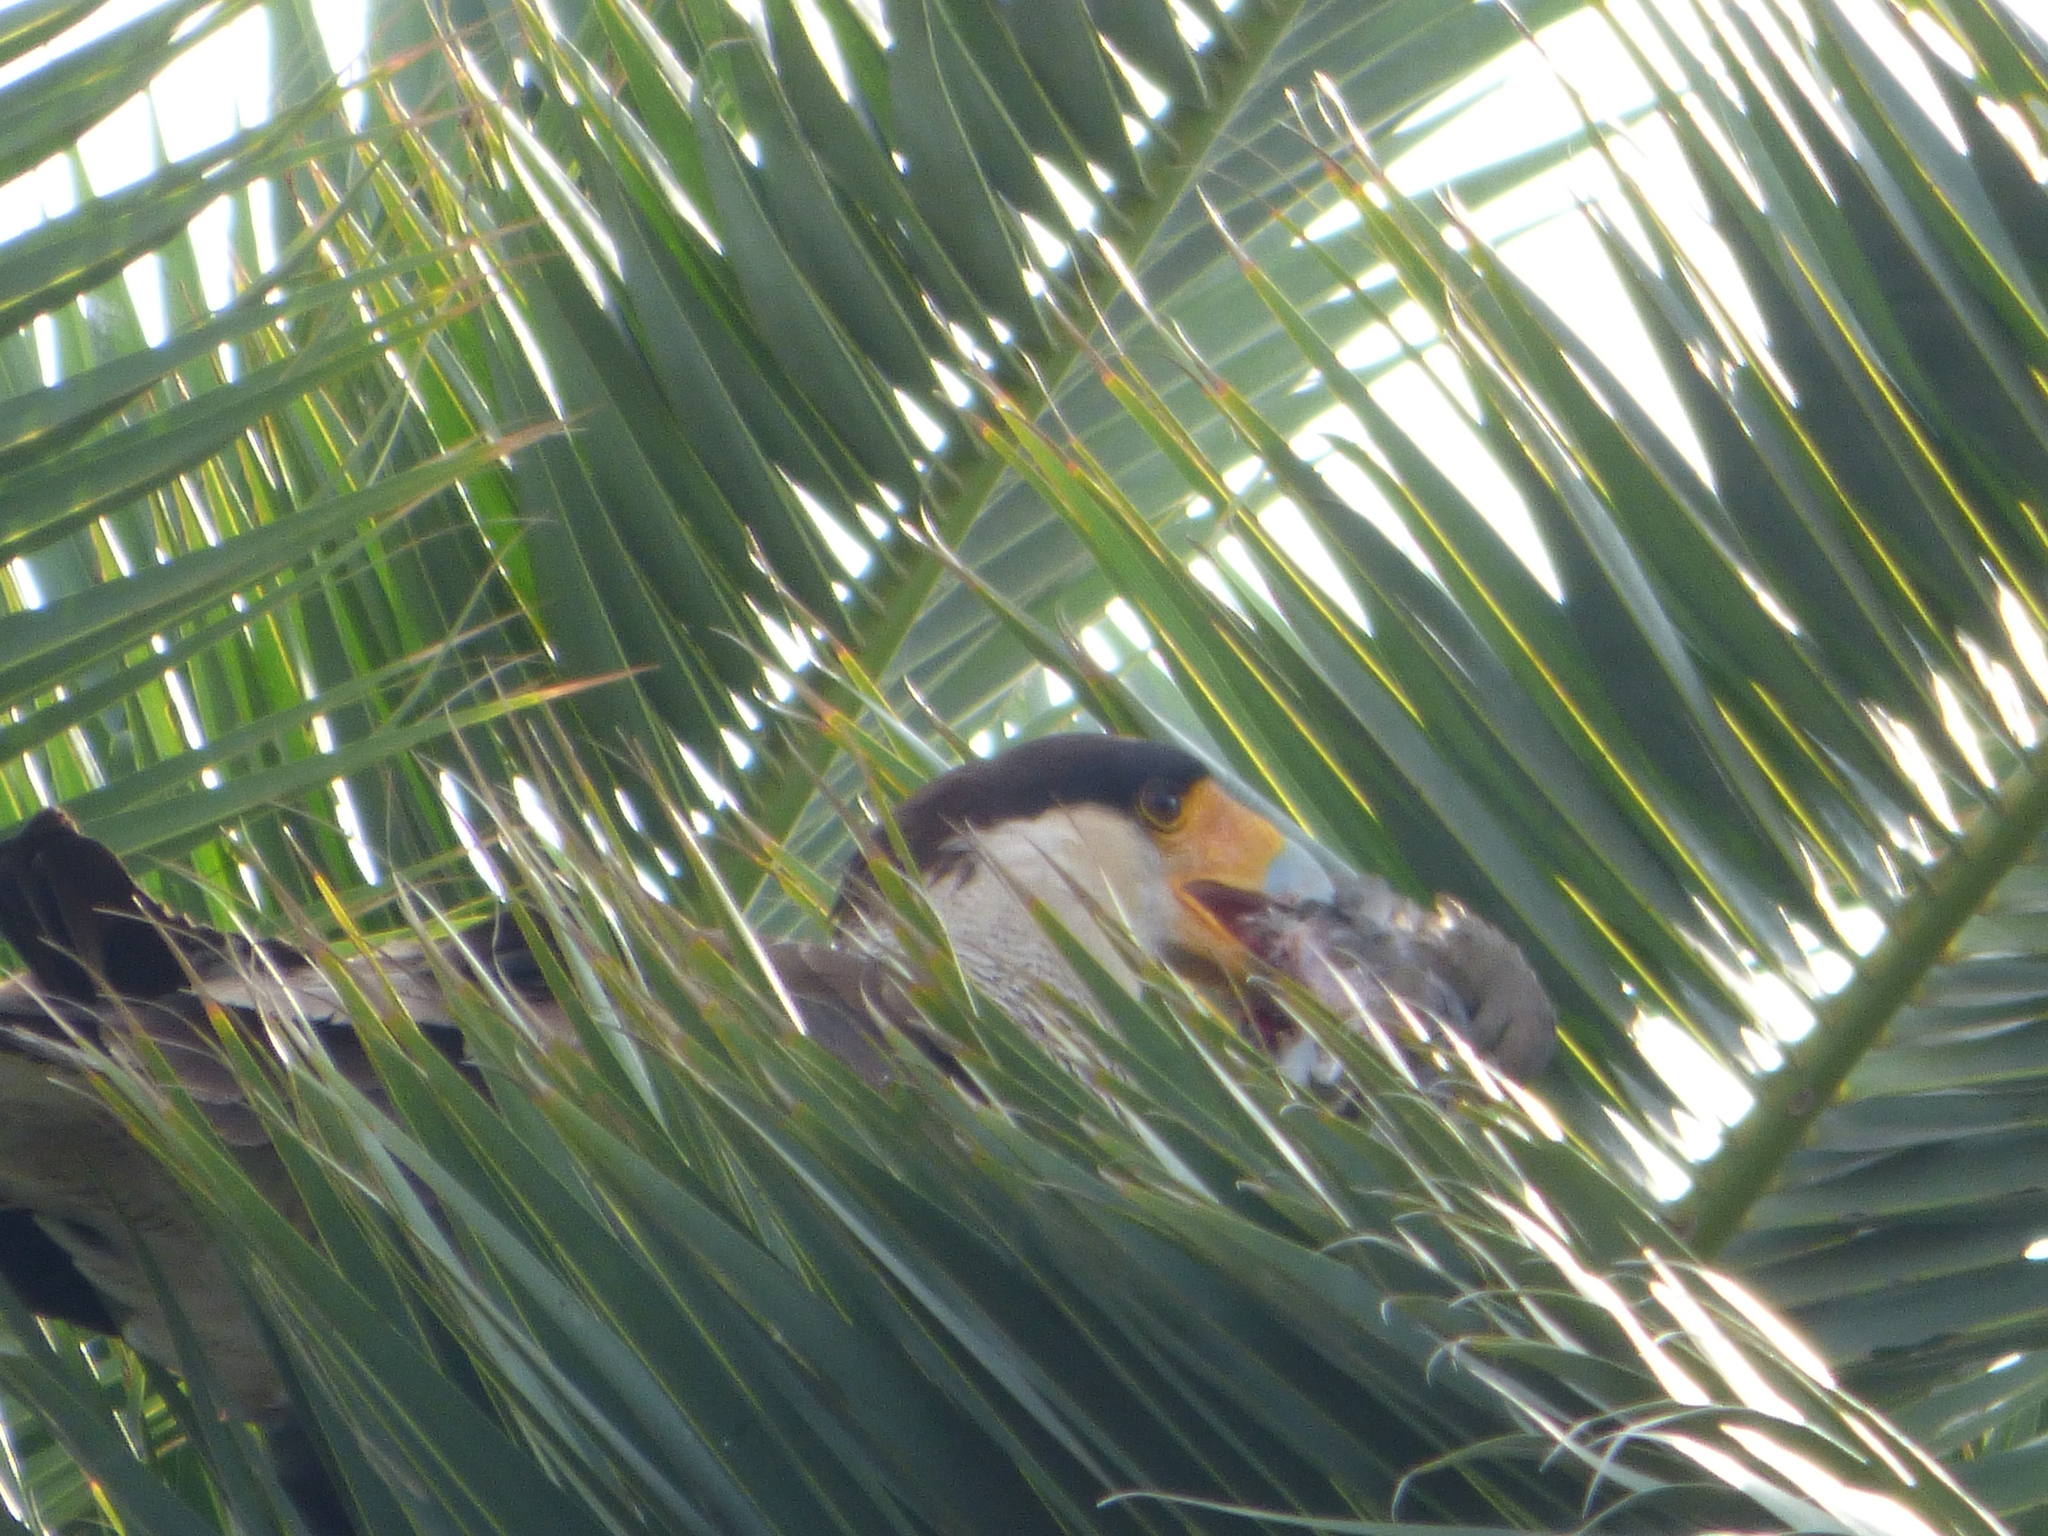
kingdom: Animalia
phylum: Chordata
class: Aves
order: Falconiformes
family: Falconidae
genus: Caracara
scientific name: Caracara plancus
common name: Southern caracara
